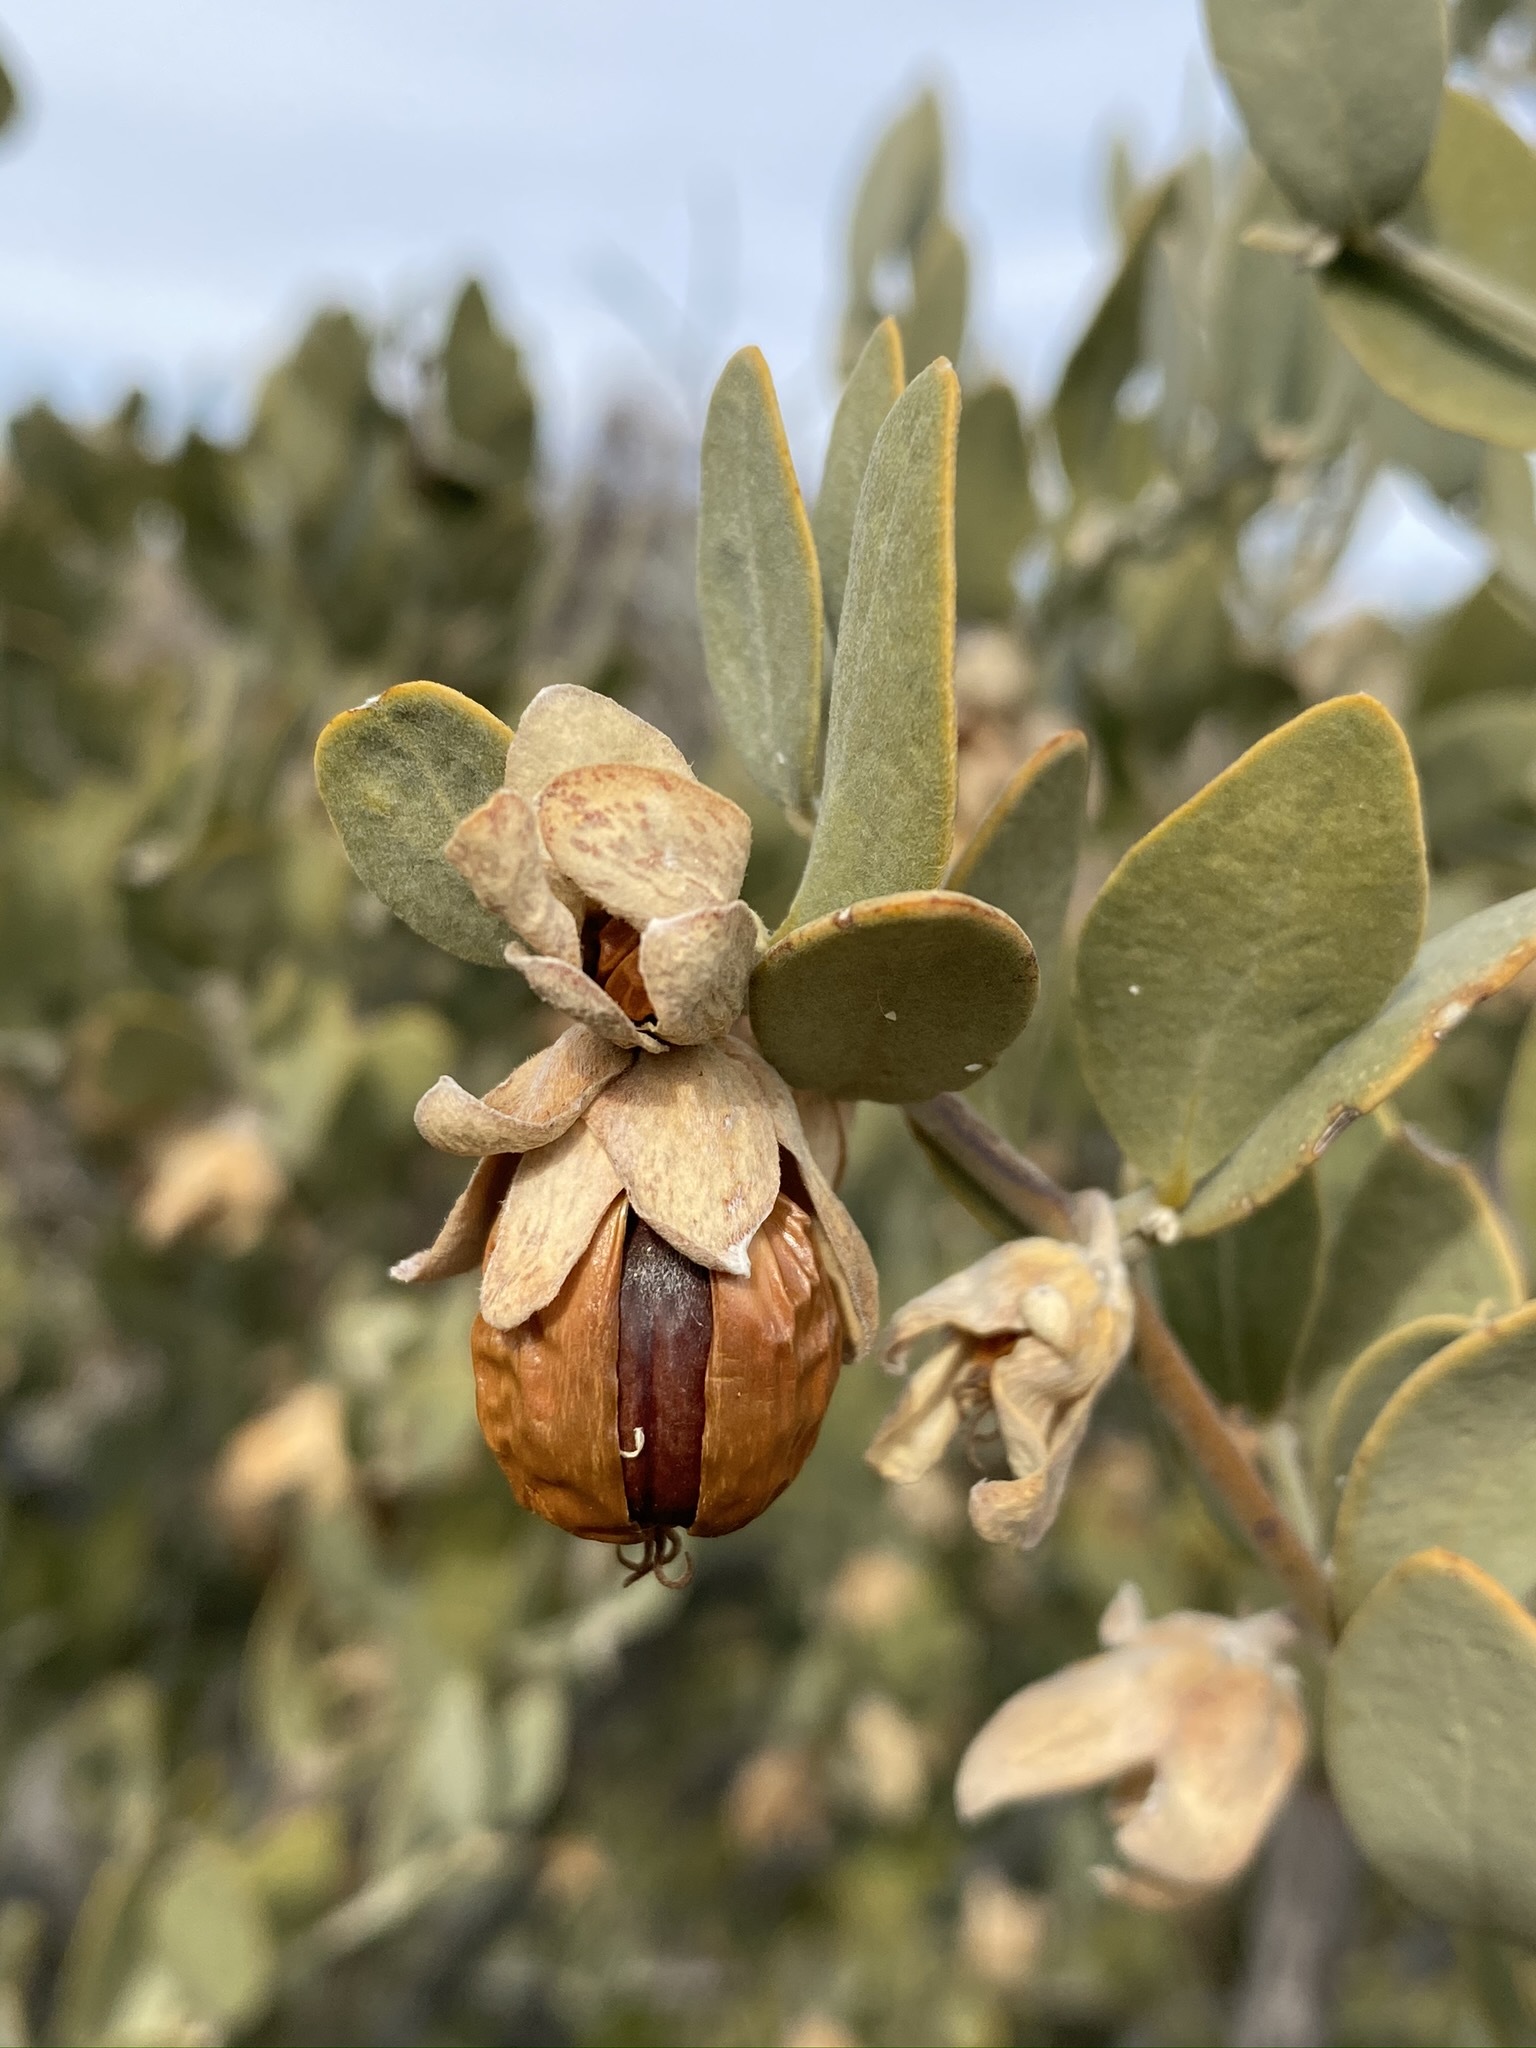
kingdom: Plantae
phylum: Tracheophyta
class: Magnoliopsida
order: Caryophyllales
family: Simmondsiaceae
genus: Simmondsia
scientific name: Simmondsia chinensis
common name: Jojoba
